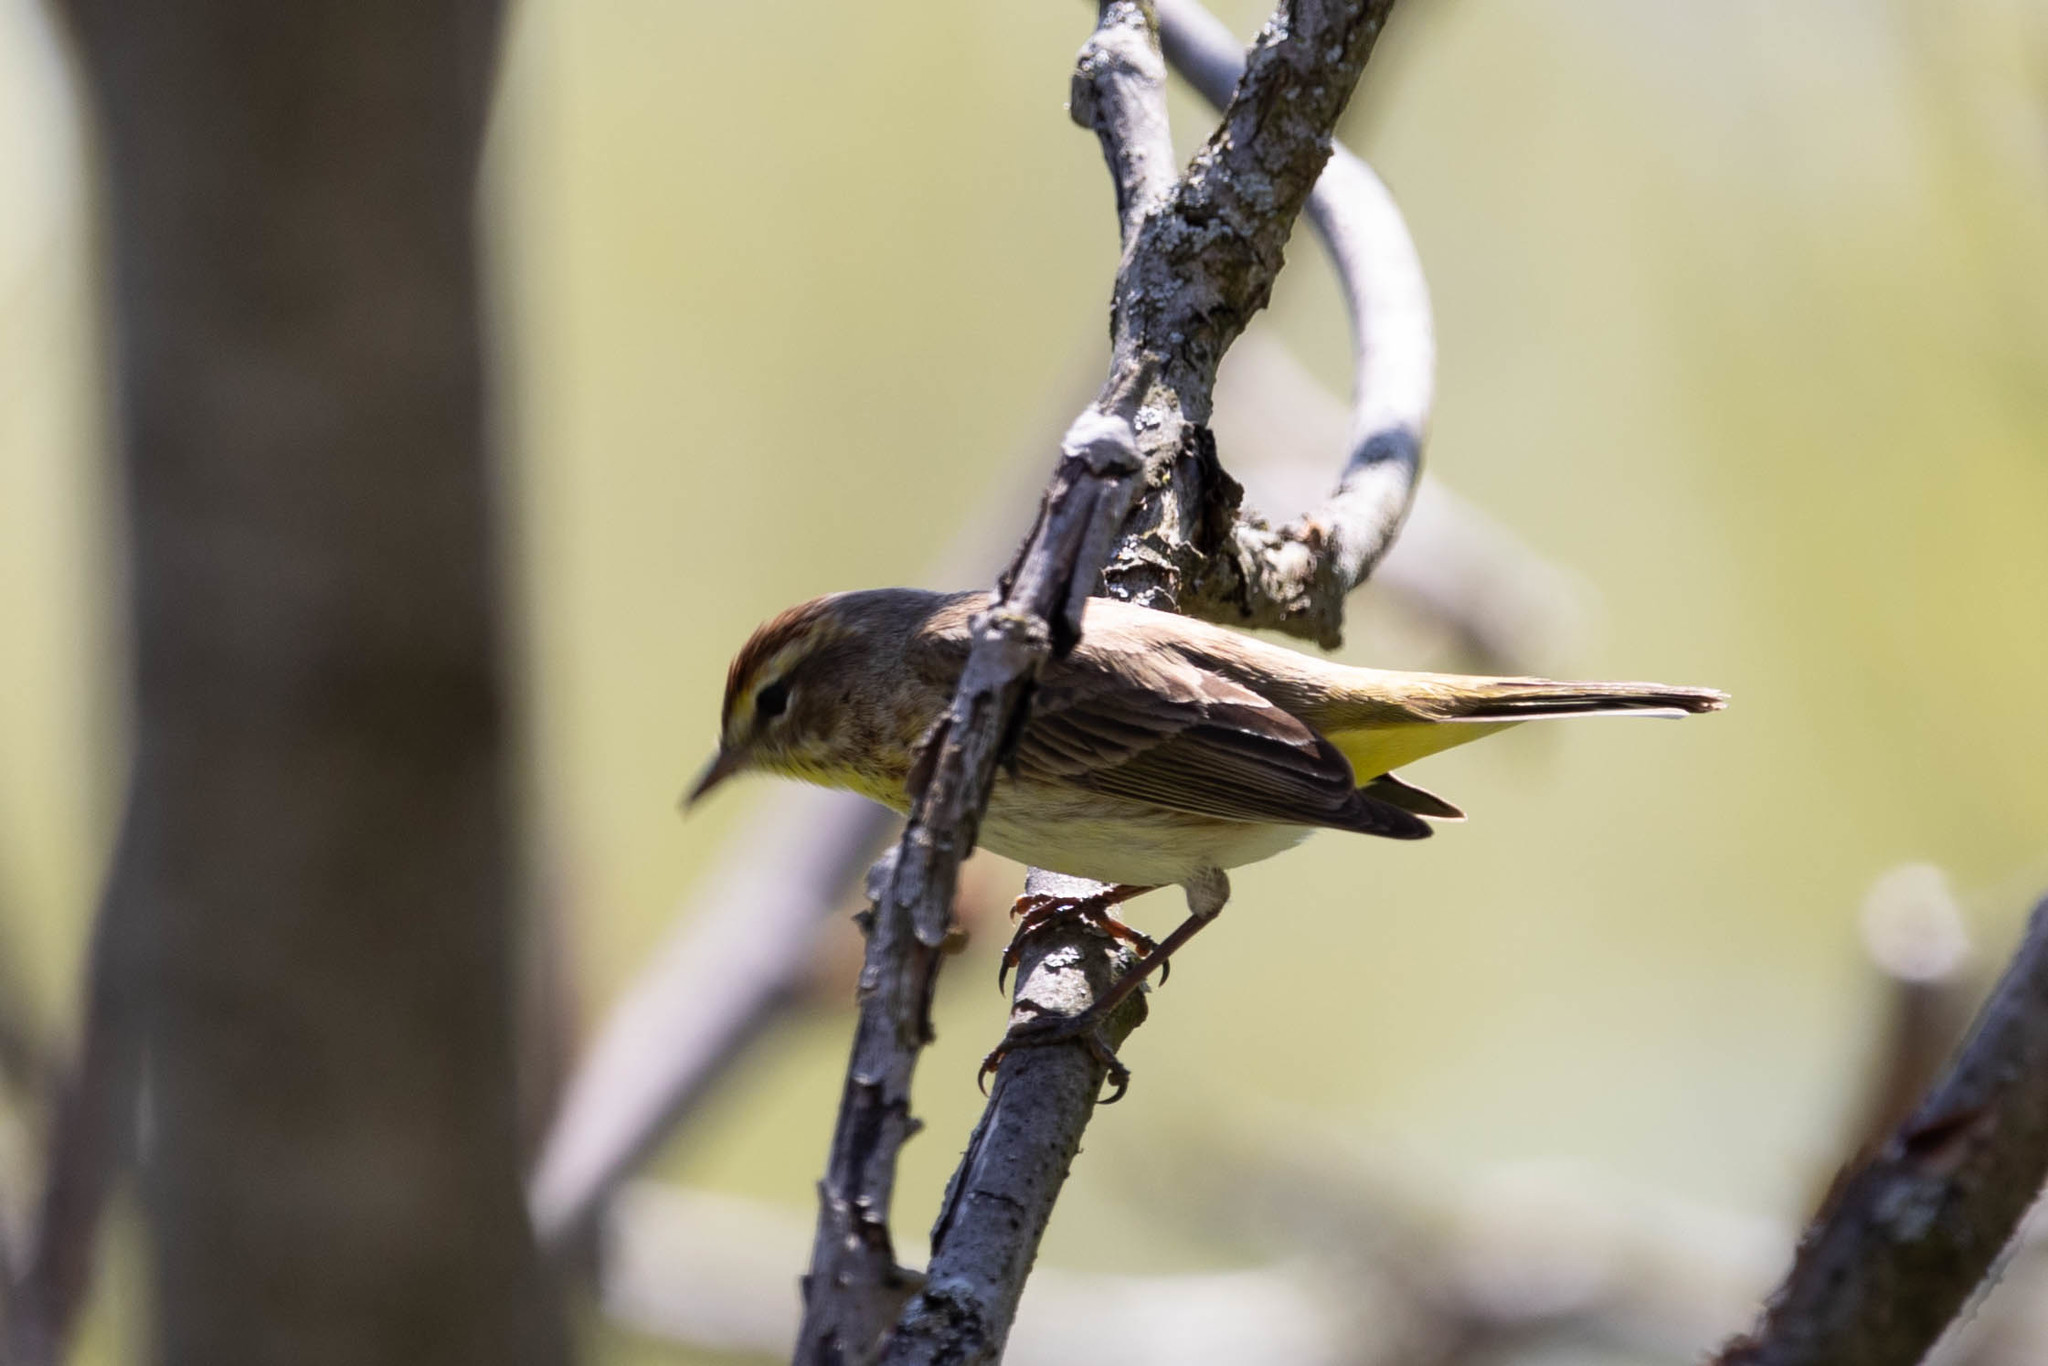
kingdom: Animalia
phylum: Chordata
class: Aves
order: Passeriformes
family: Parulidae
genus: Setophaga
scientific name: Setophaga palmarum
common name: Palm warbler
